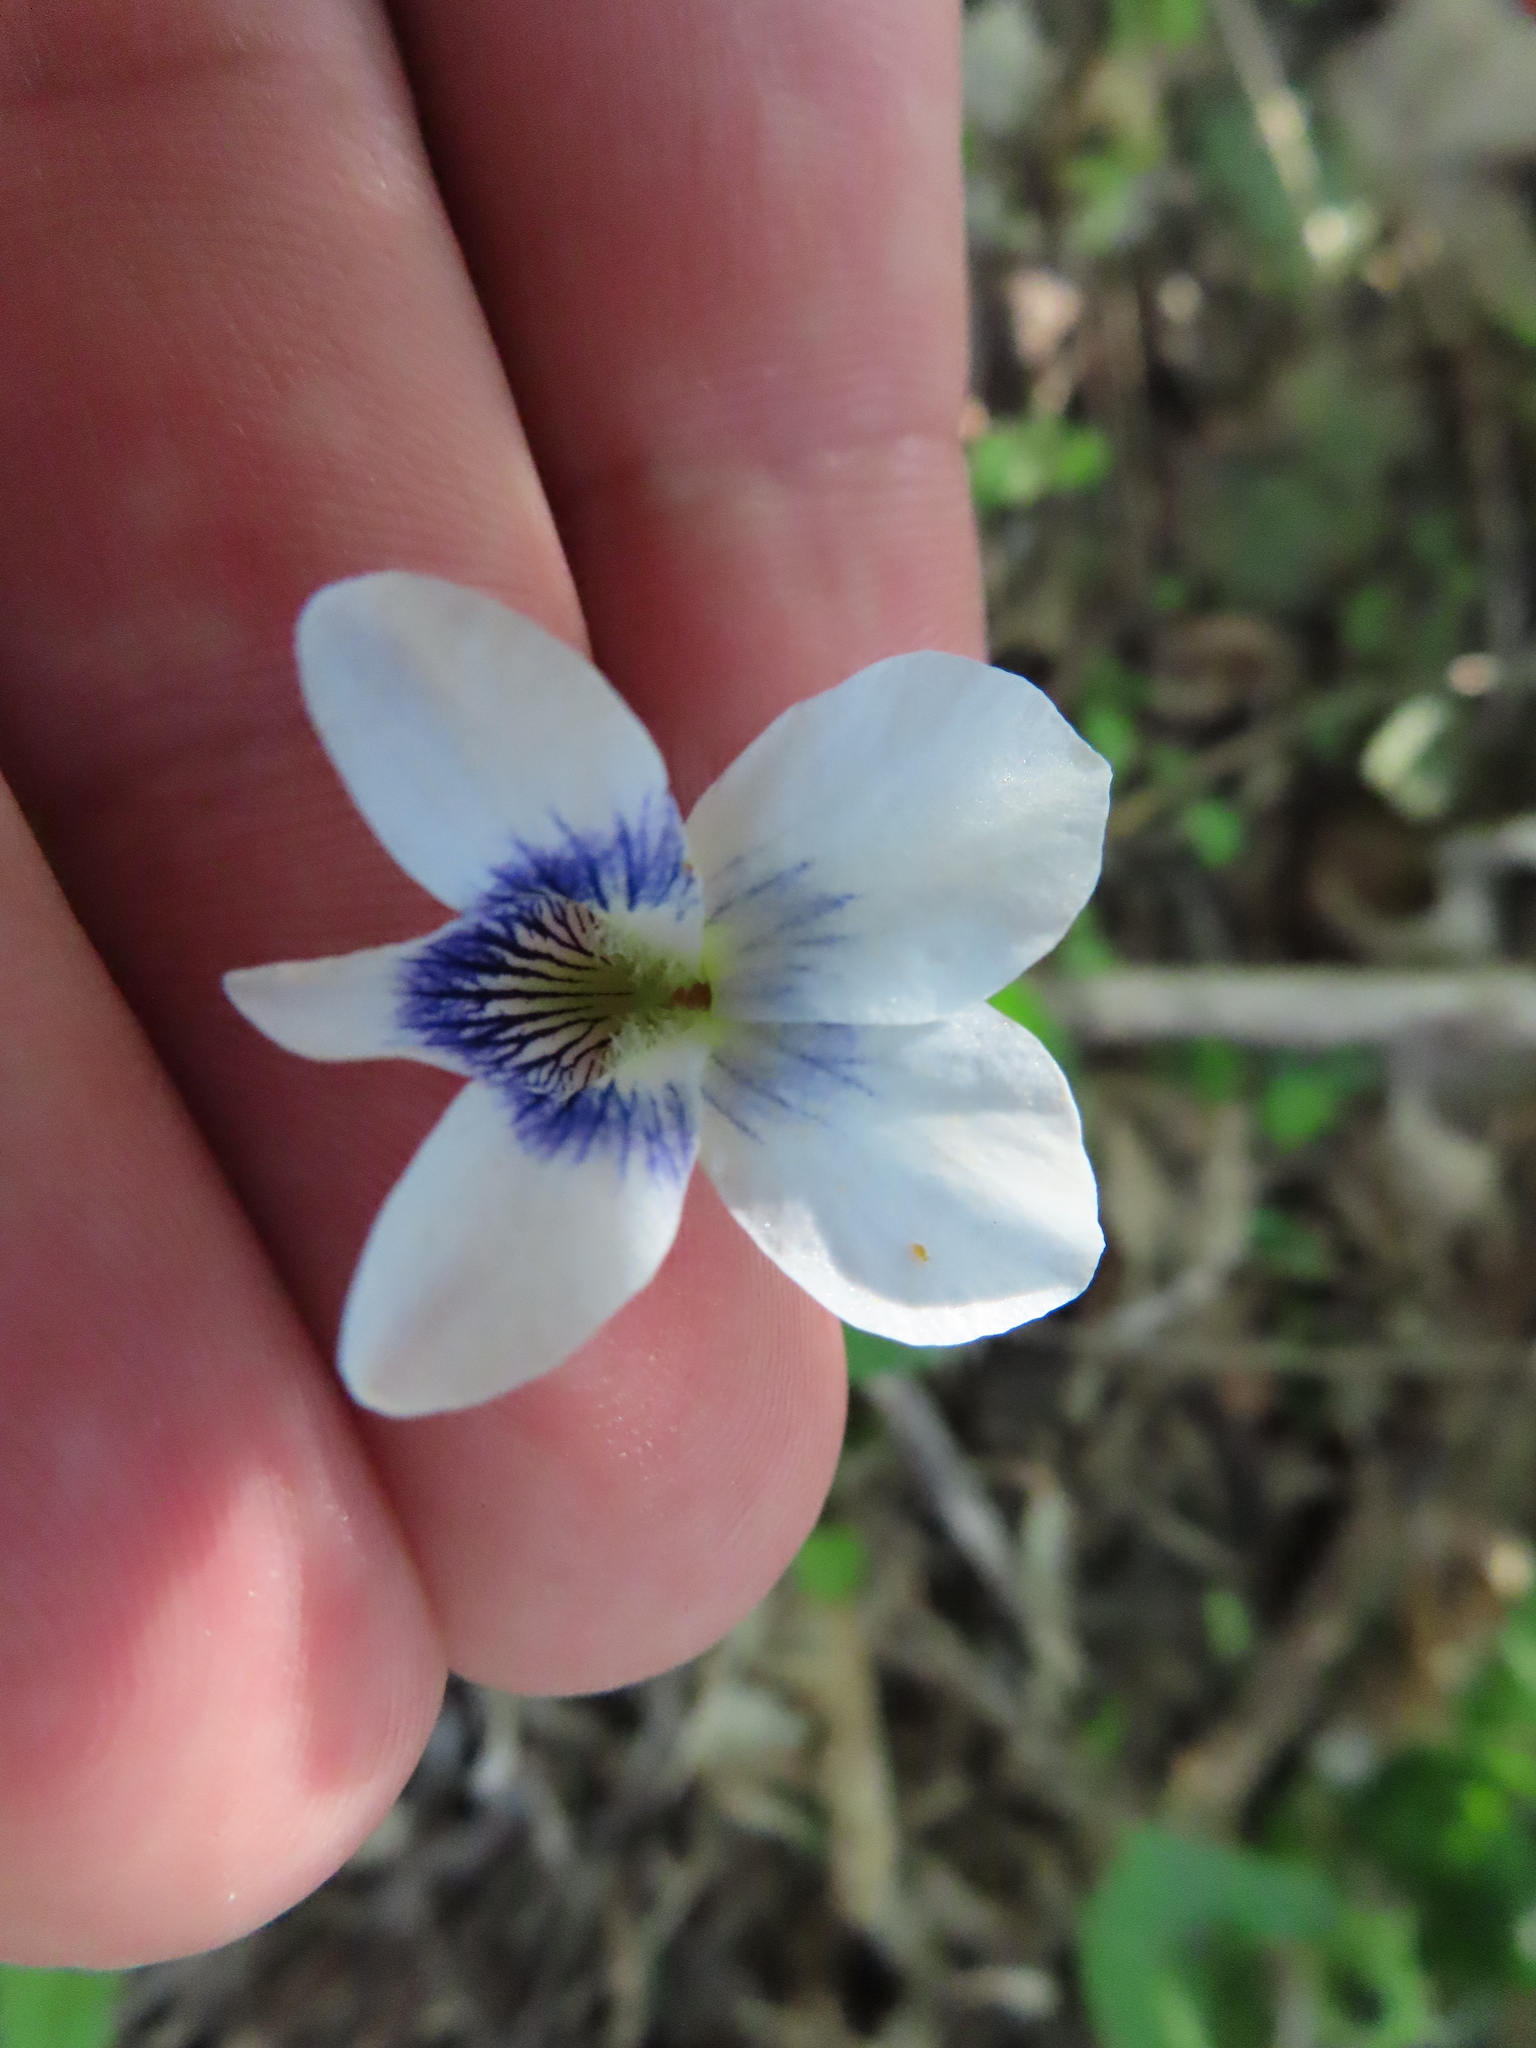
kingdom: Plantae
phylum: Tracheophyta
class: Magnoliopsida
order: Malpighiales
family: Violaceae
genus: Viola
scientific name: Viola sororia
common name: Dooryard violet
